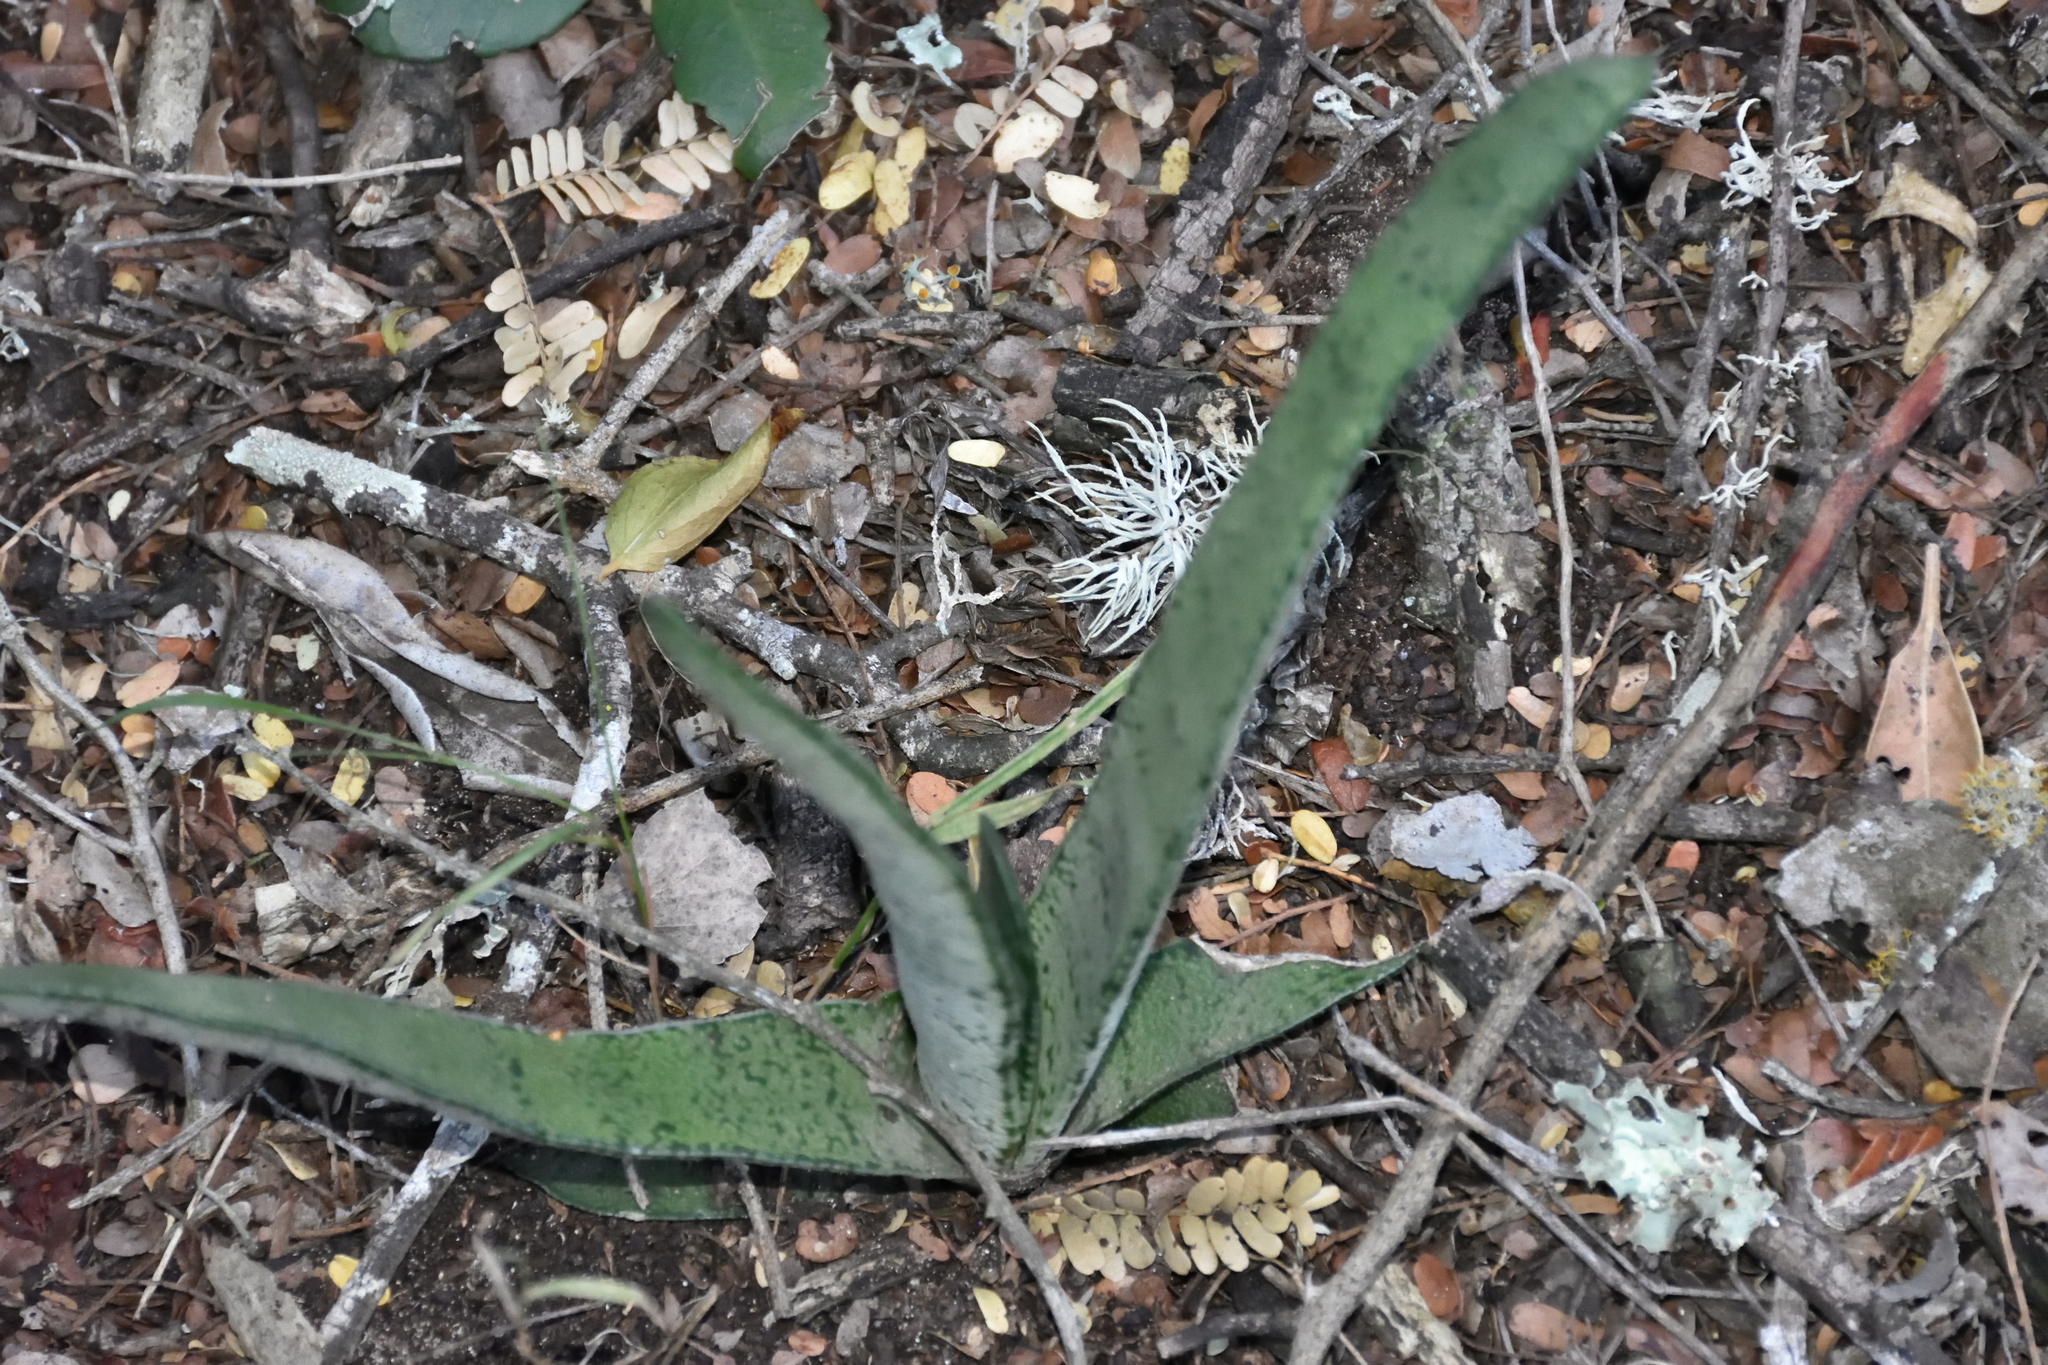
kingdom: Plantae
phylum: Tracheophyta
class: Liliopsida
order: Asparagales
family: Asphodelaceae
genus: Gasteria
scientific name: Gasteria acinacifolia
